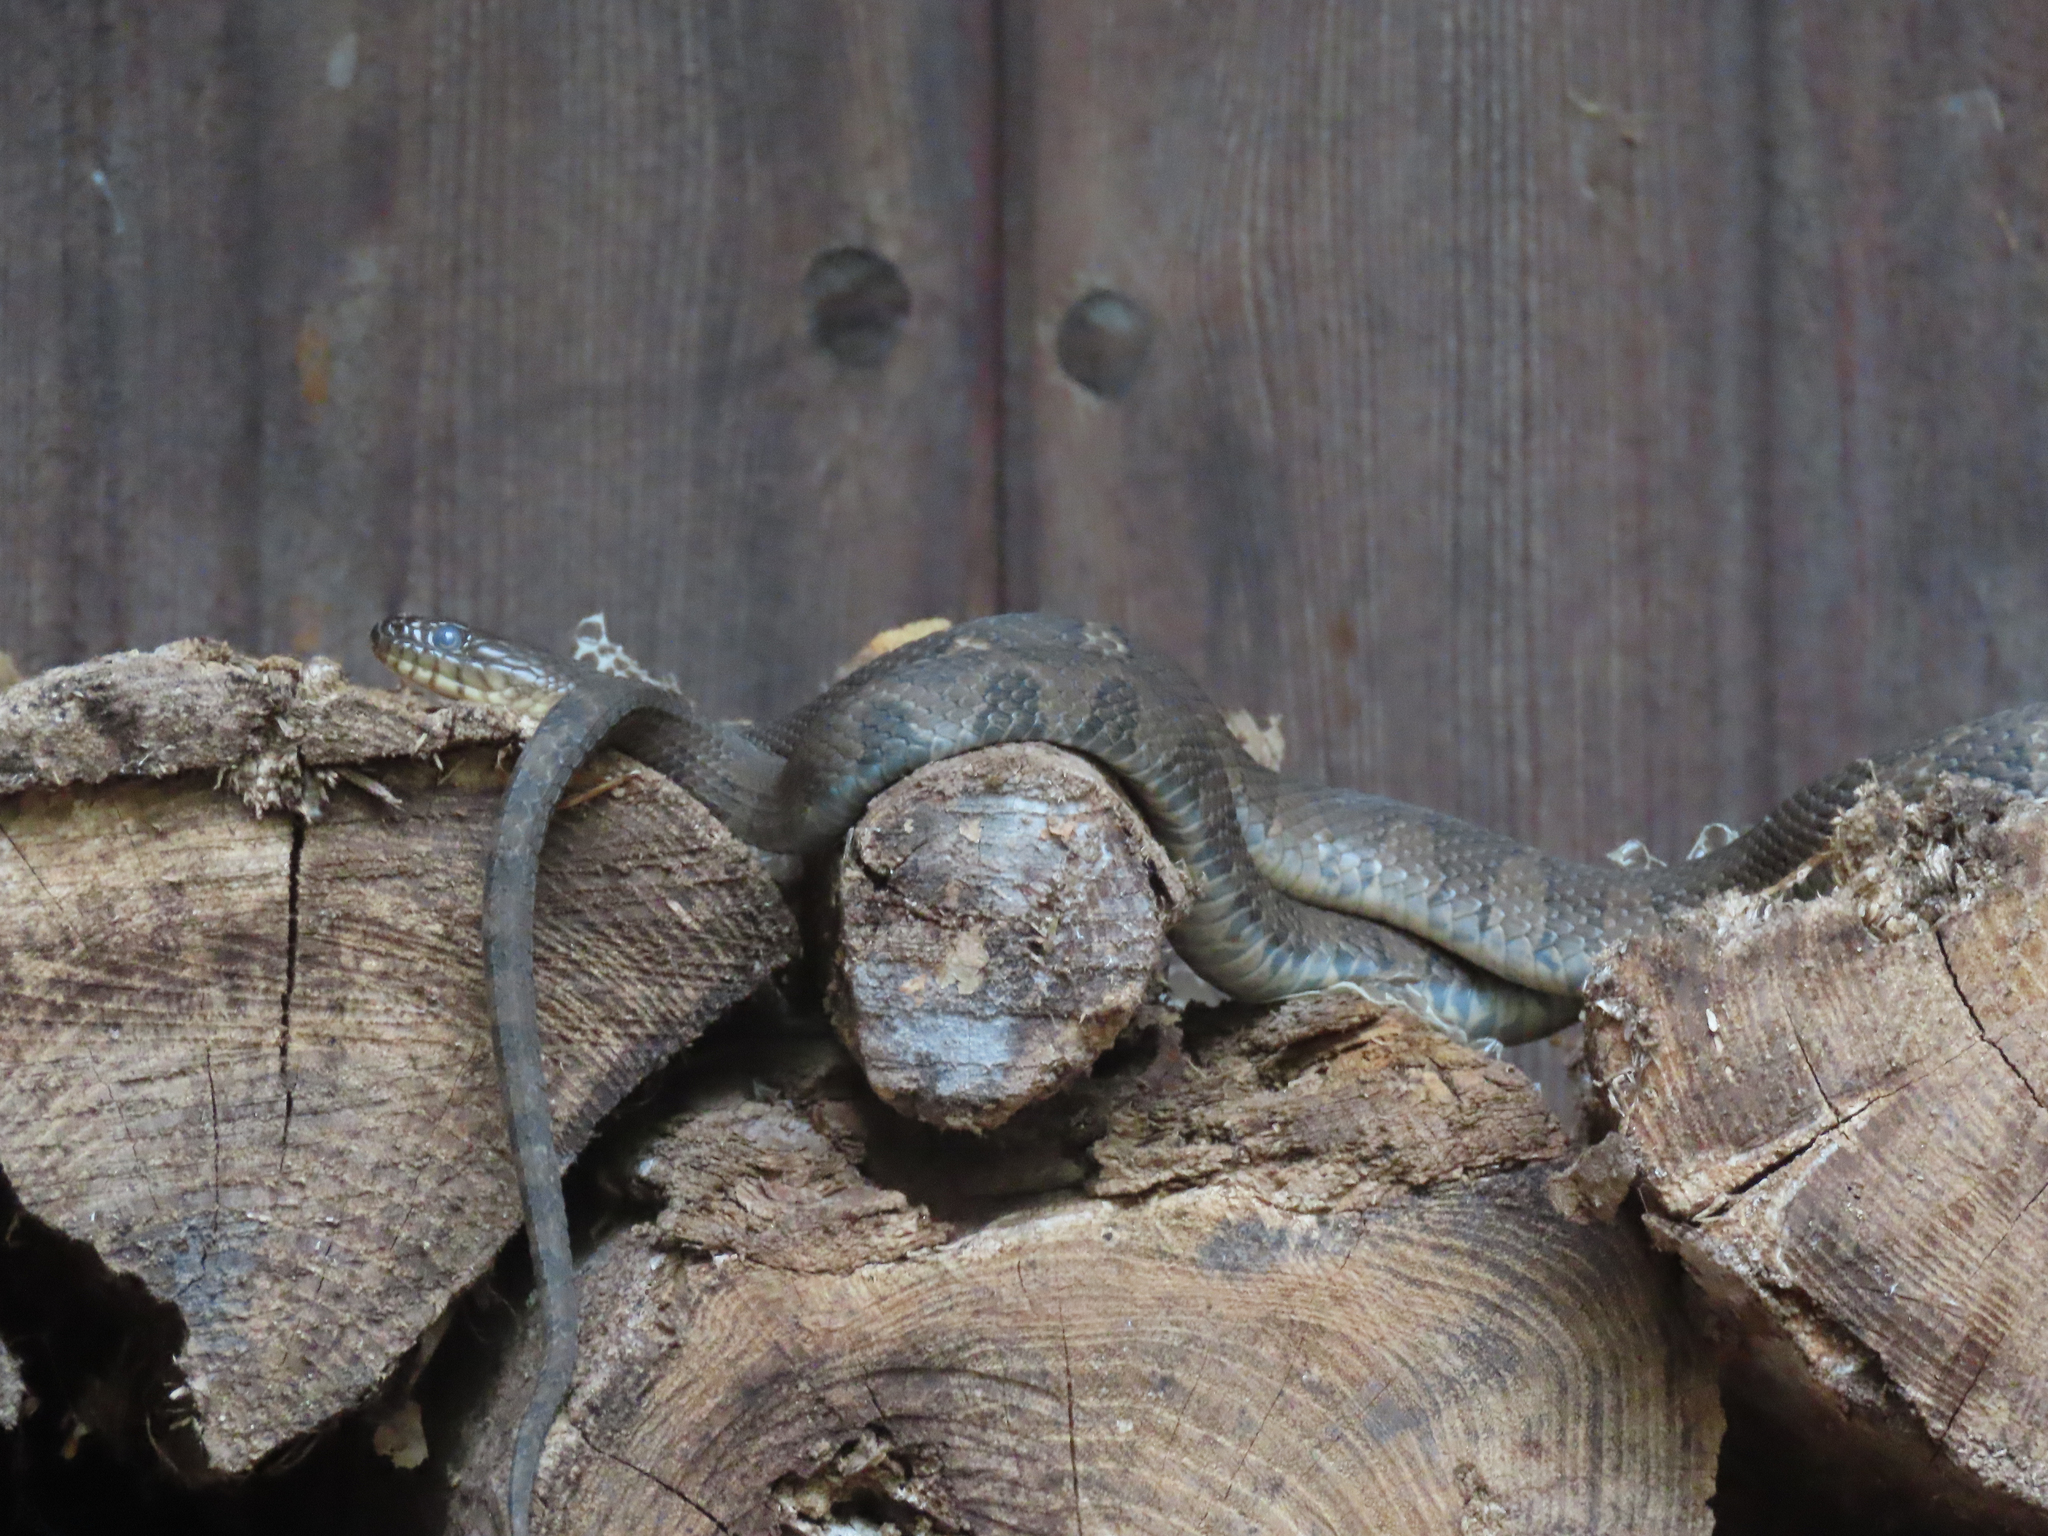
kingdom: Animalia
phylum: Chordata
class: Squamata
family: Colubridae
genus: Nerodia
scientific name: Nerodia sipedon
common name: Northern water snake
